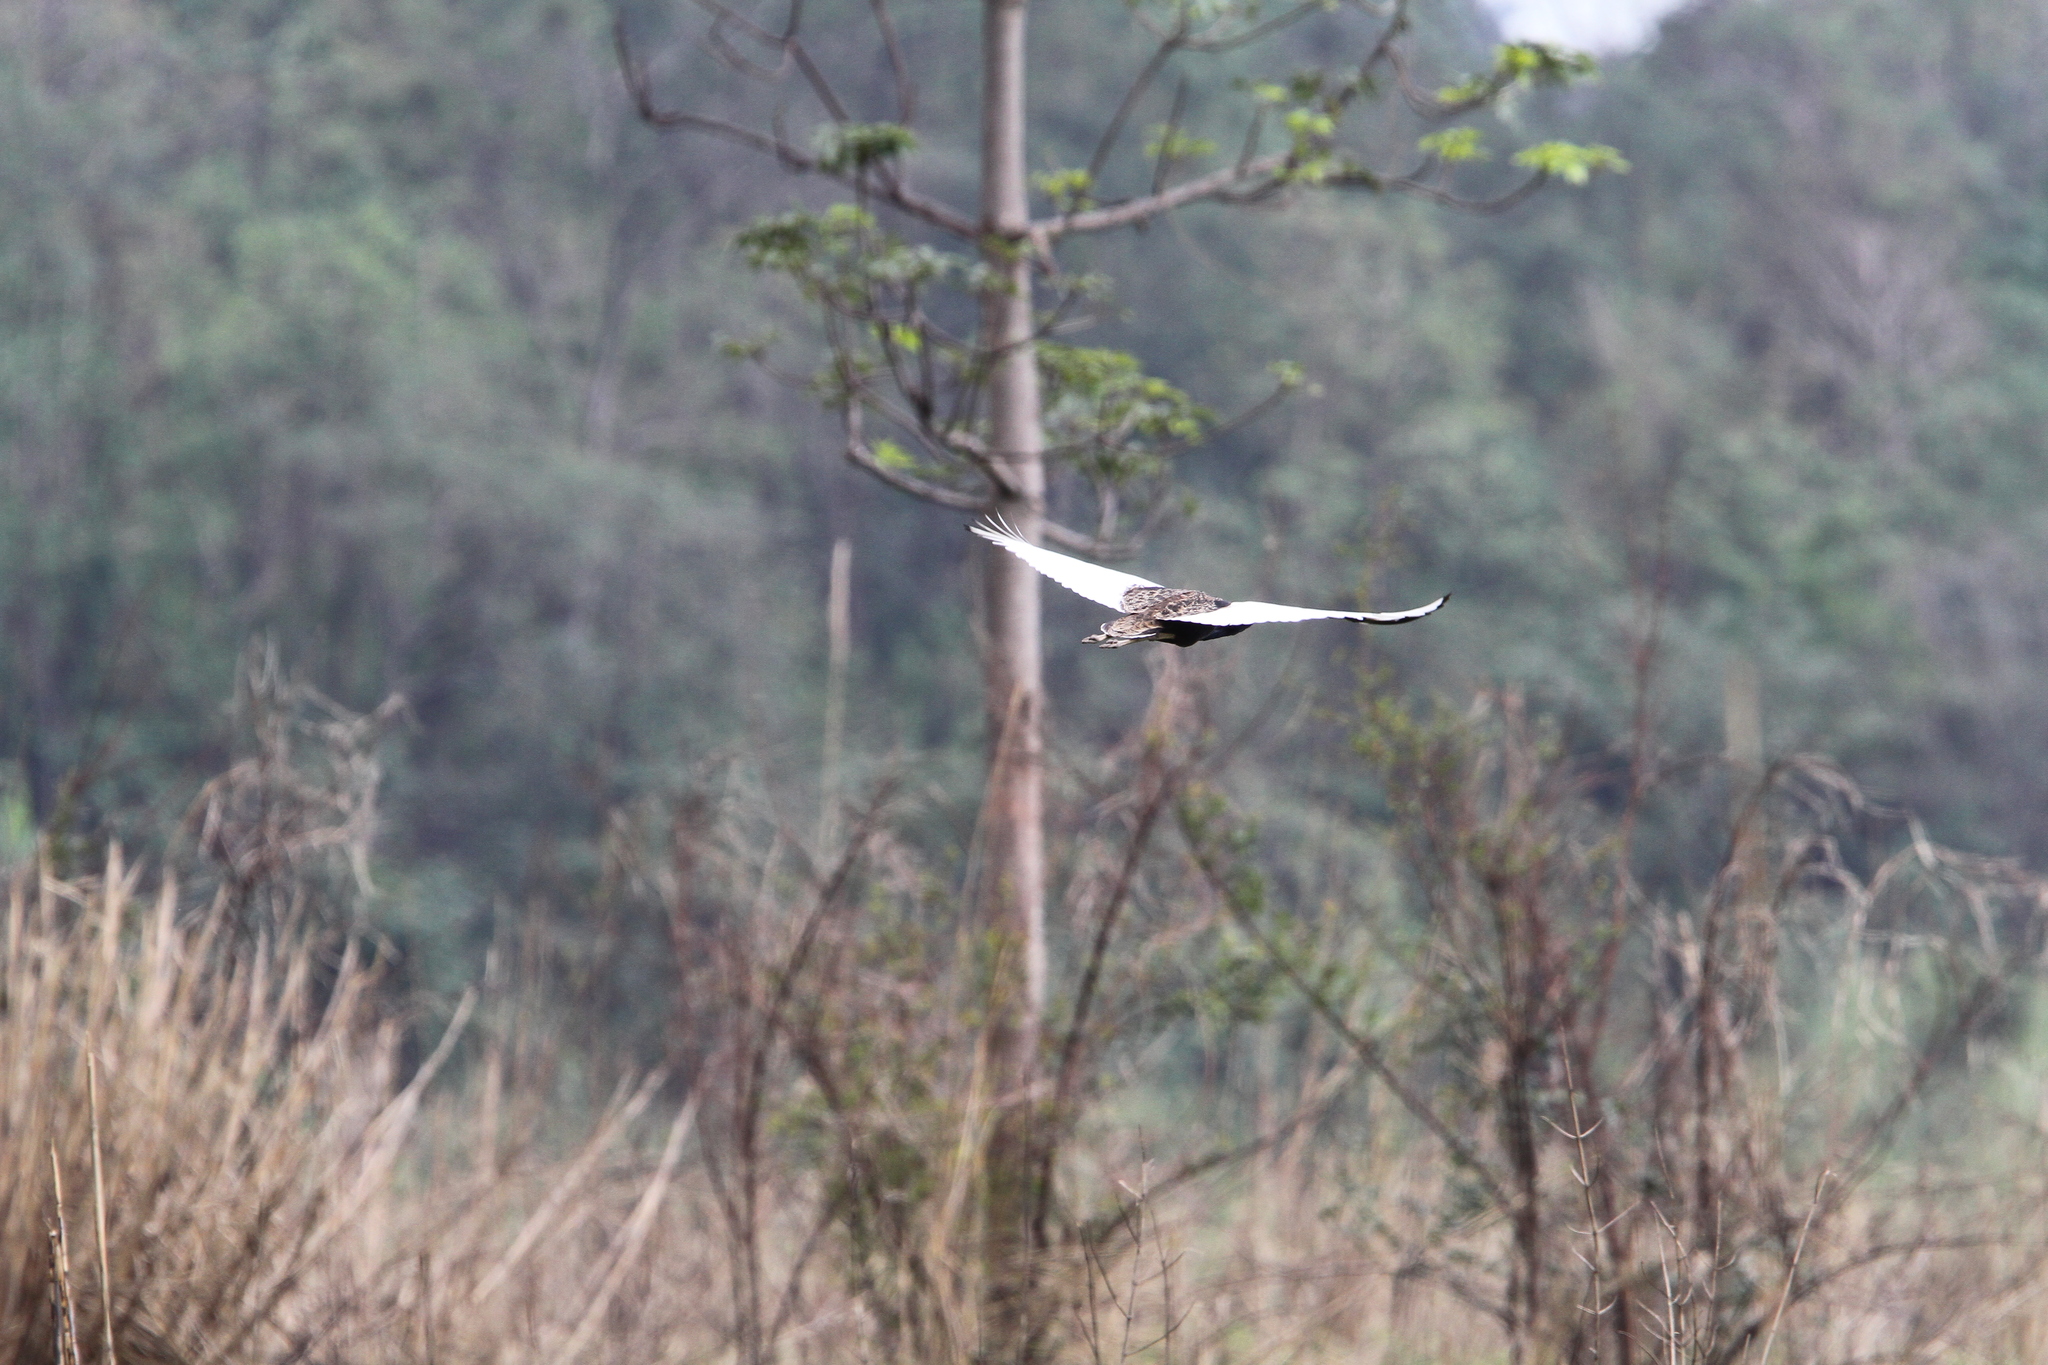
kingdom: Animalia
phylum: Chordata
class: Aves
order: Otidiformes
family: Otididae
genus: Houbaropsis
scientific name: Houbaropsis bengalensis
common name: Bengal florican
